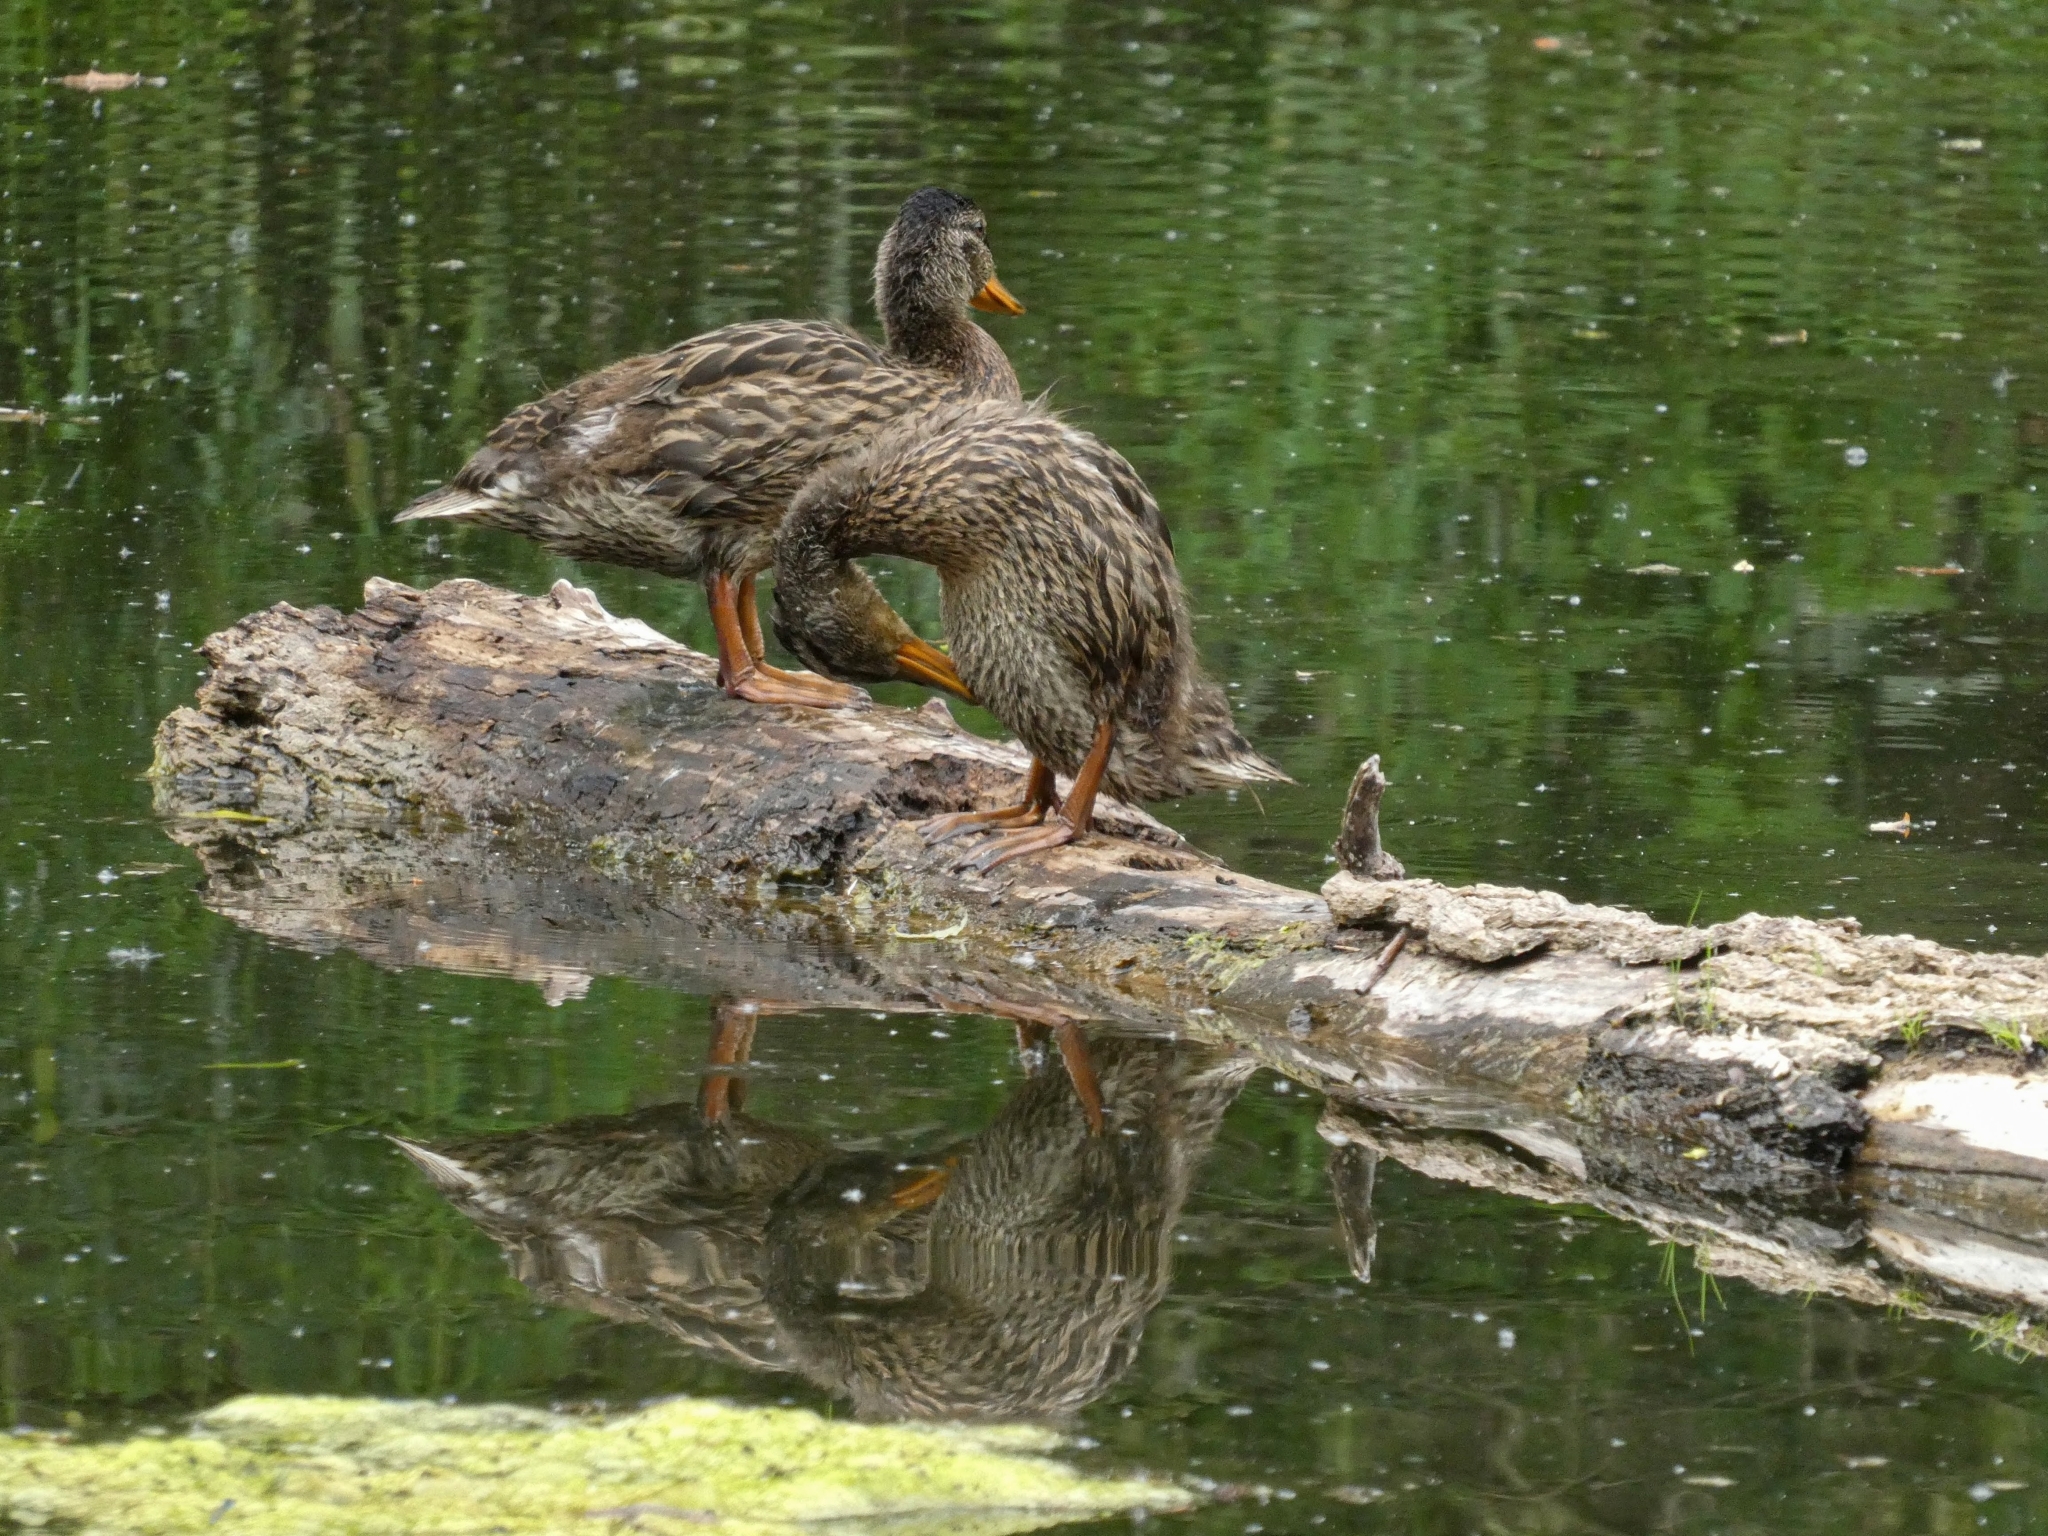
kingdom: Animalia
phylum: Chordata
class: Aves
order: Anseriformes
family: Anatidae
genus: Anas
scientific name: Anas platyrhynchos
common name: Mallard
